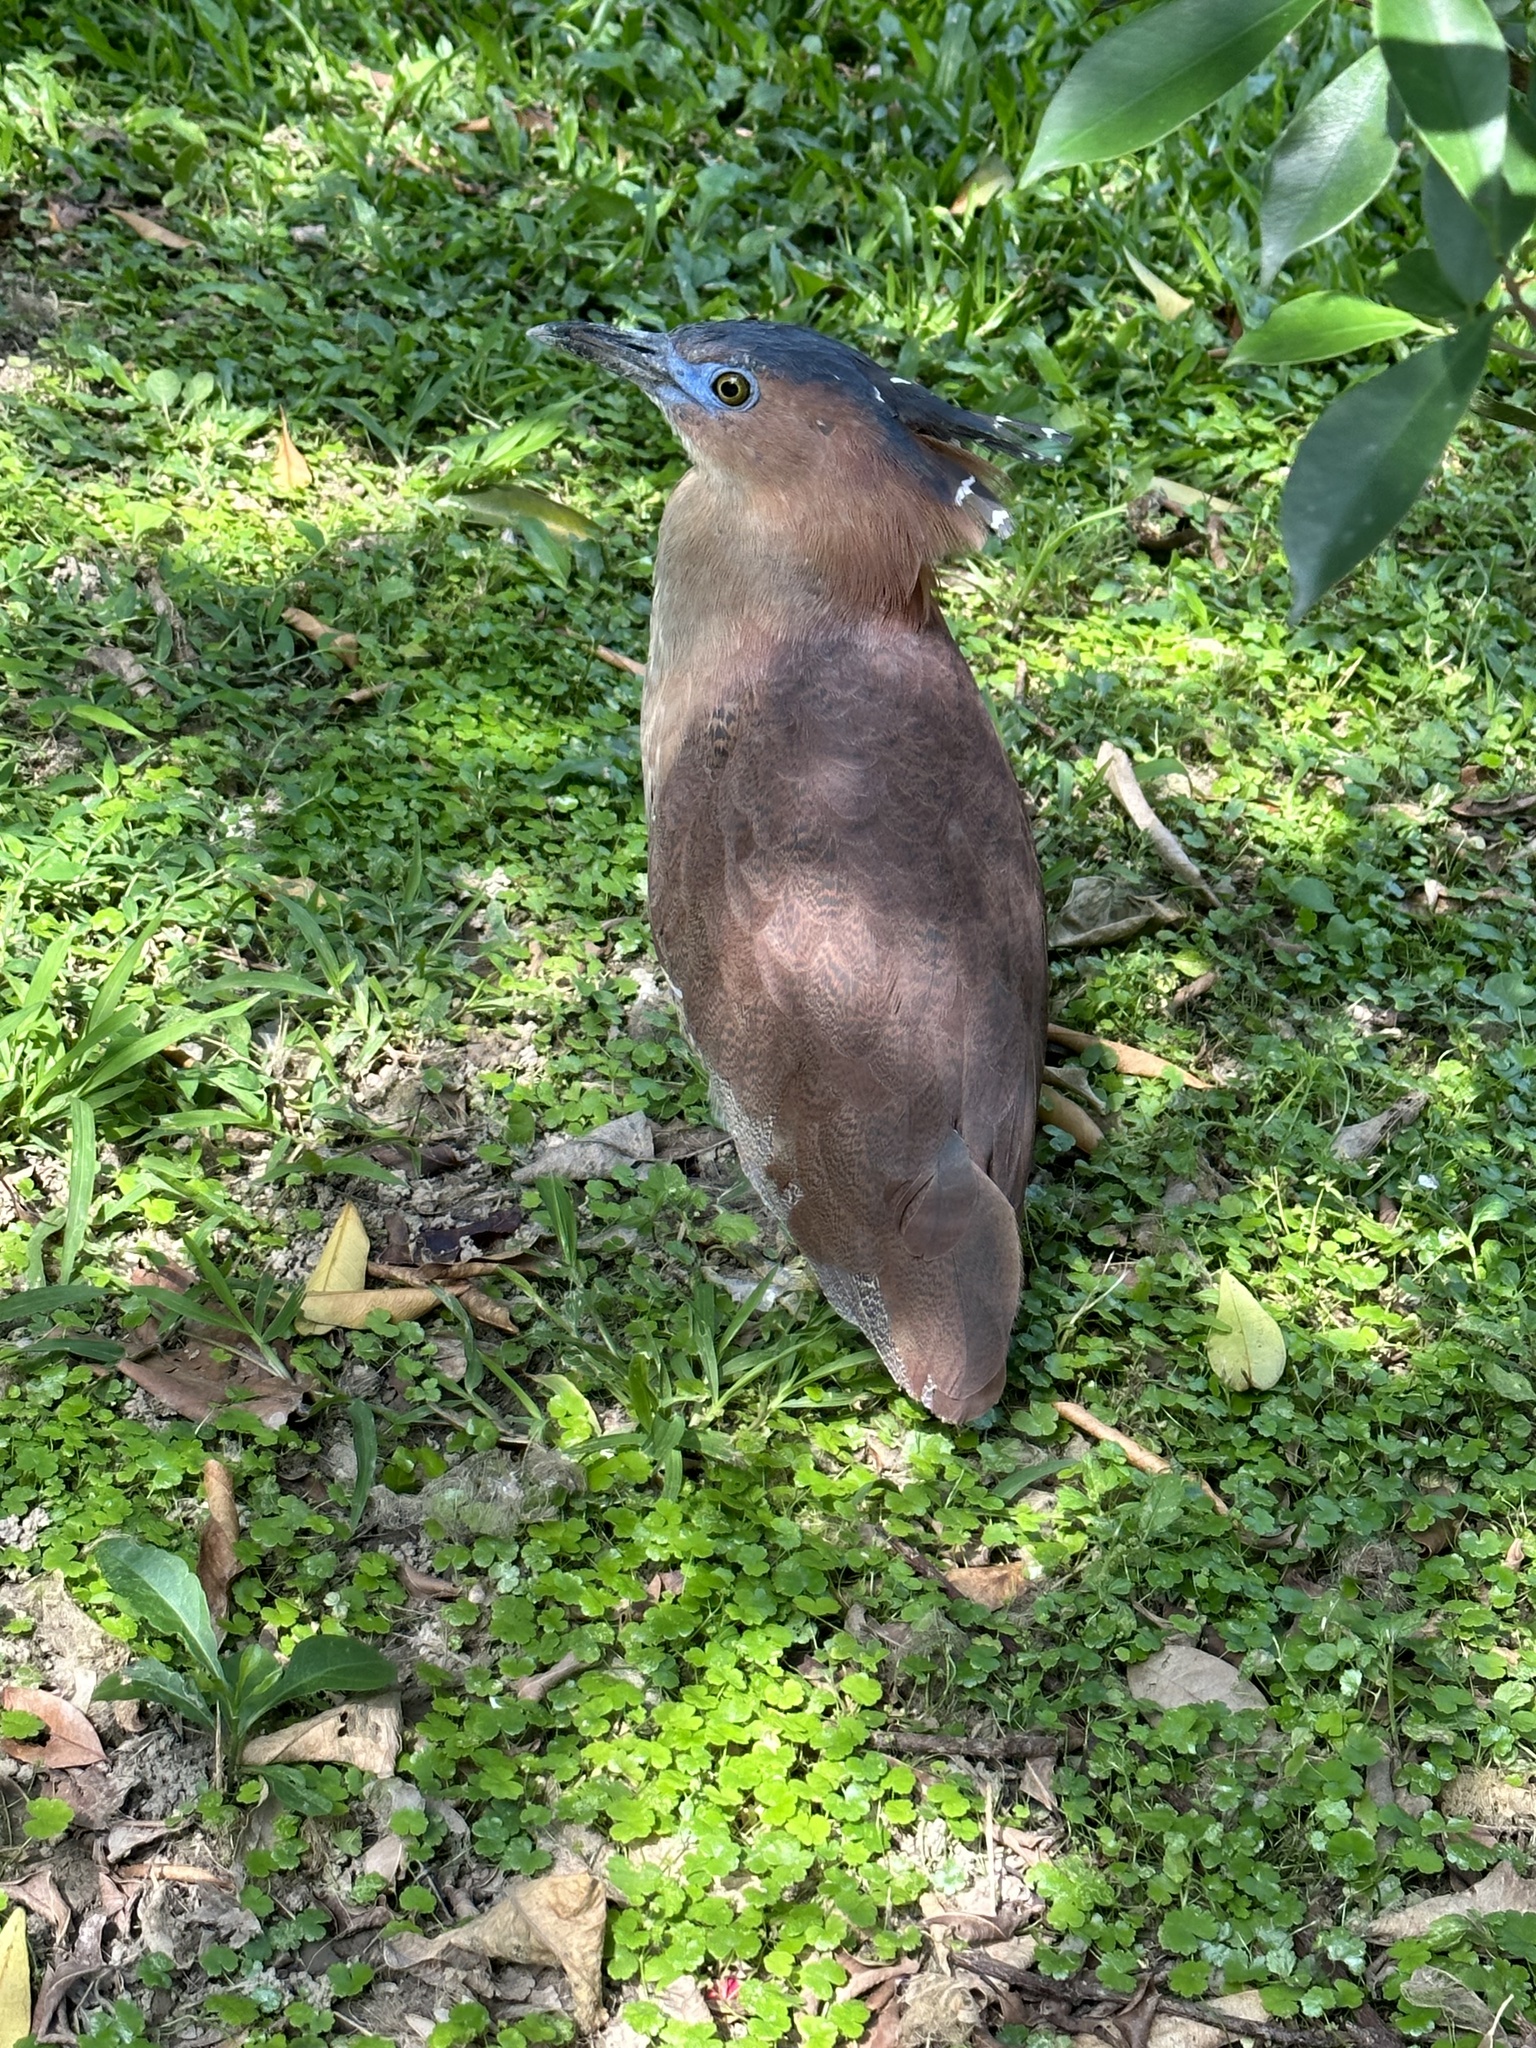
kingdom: Animalia
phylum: Chordata
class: Aves
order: Pelecaniformes
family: Ardeidae
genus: Gorsachius
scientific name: Gorsachius melanolophus
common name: Malayan night heron
